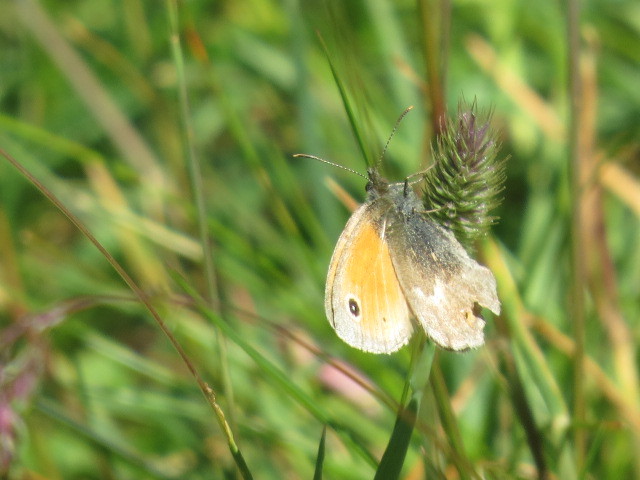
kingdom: Animalia
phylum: Arthropoda
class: Insecta
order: Lepidoptera
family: Nymphalidae
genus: Coenonympha
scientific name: Coenonympha pamphilus
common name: Small heath
